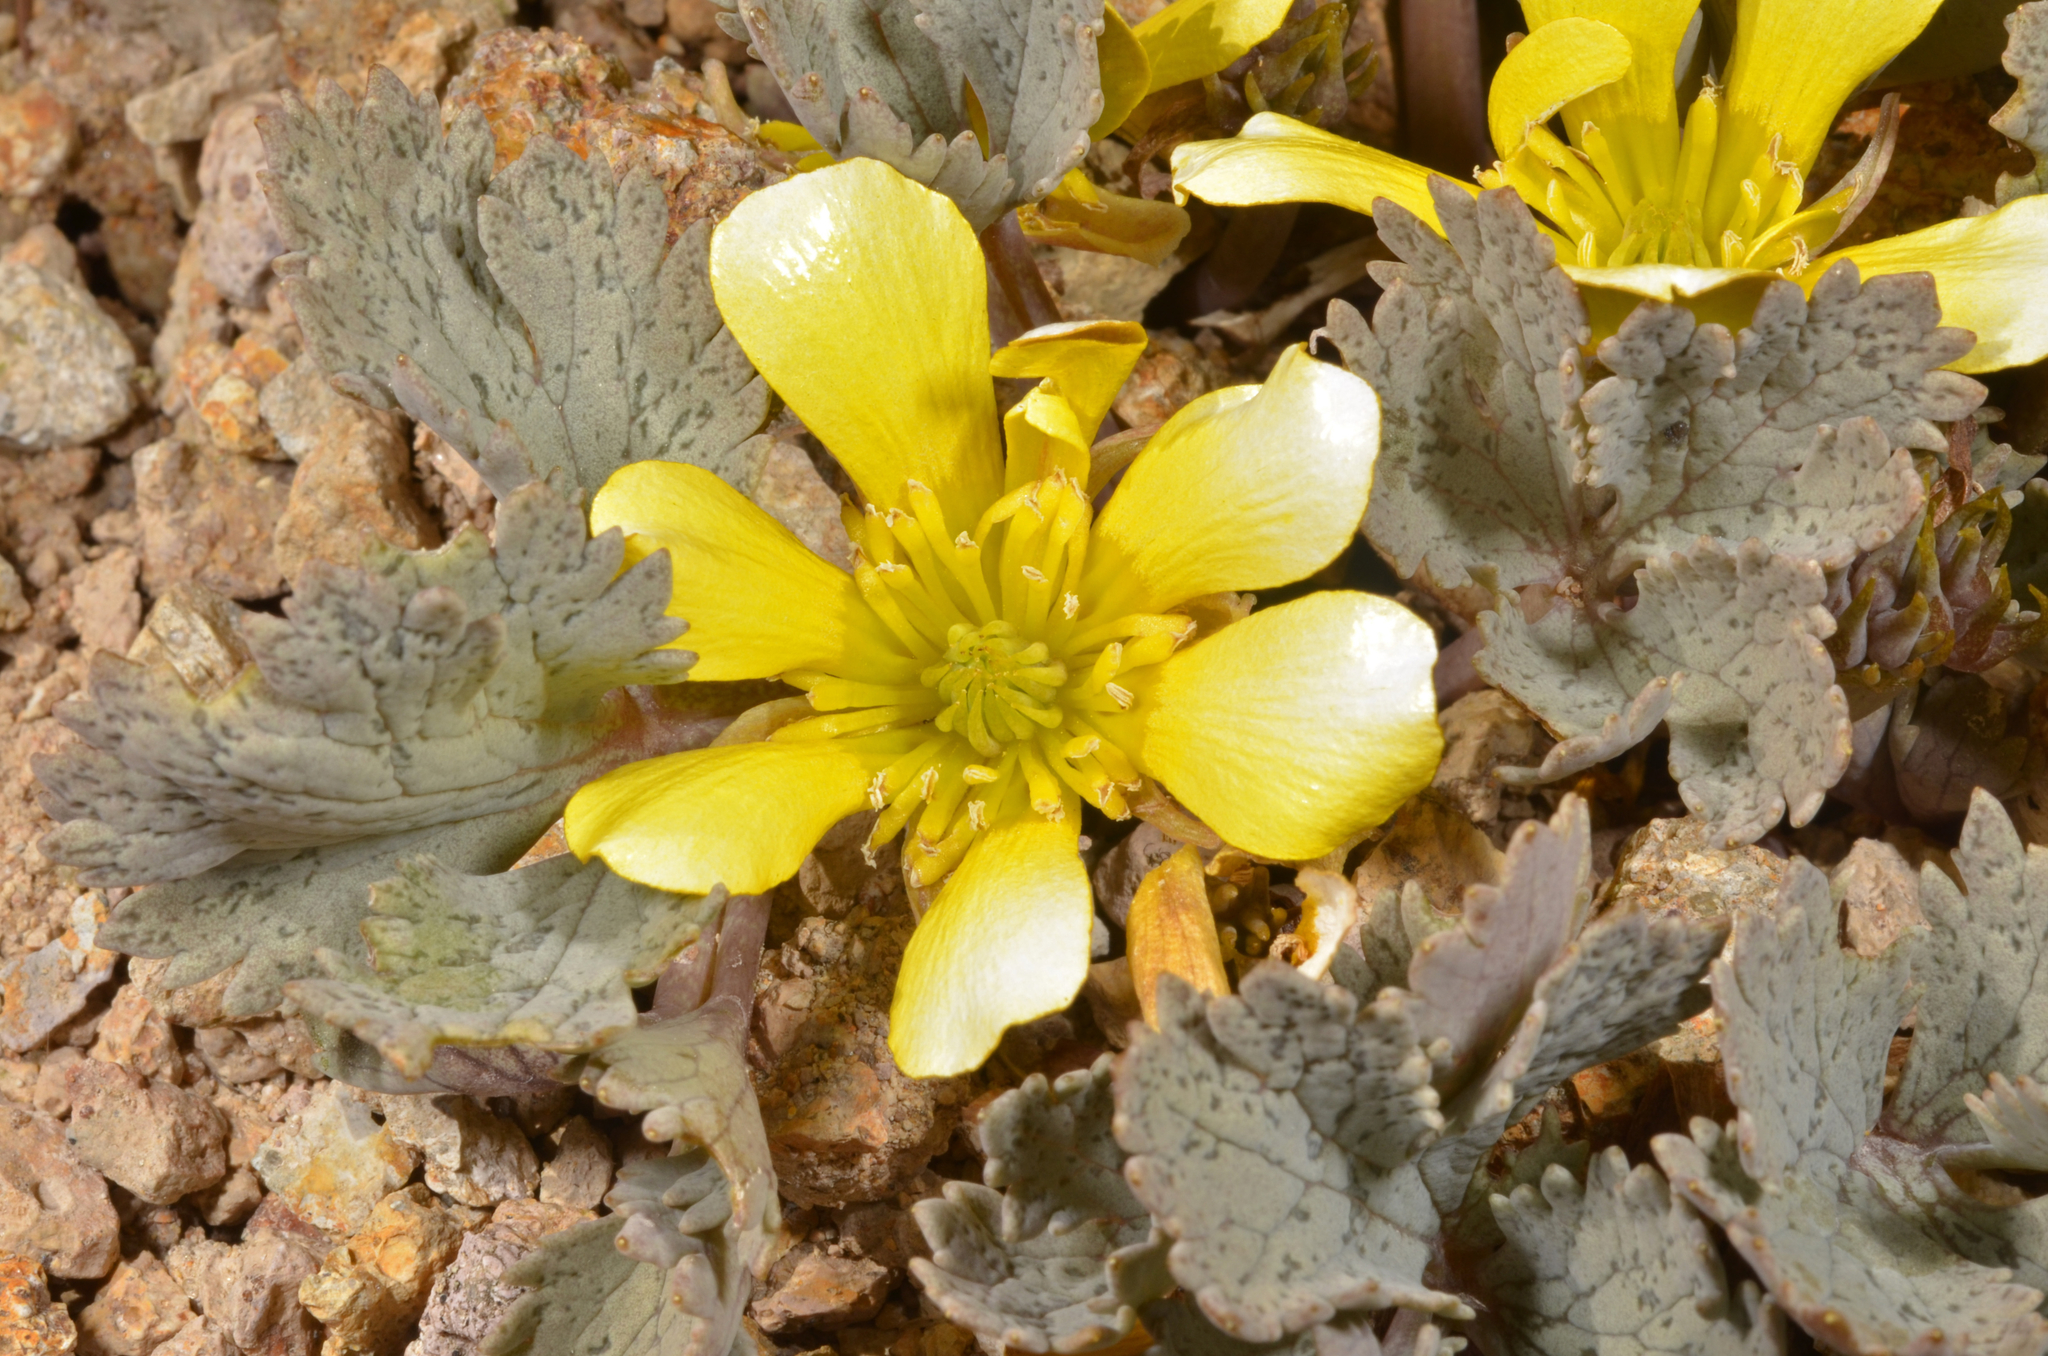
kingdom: Plantae
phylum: Tracheophyta
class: Magnoliopsida
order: Ranunculales
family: Ranunculaceae
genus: Ranunculus
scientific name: Ranunculus crithmifolius
